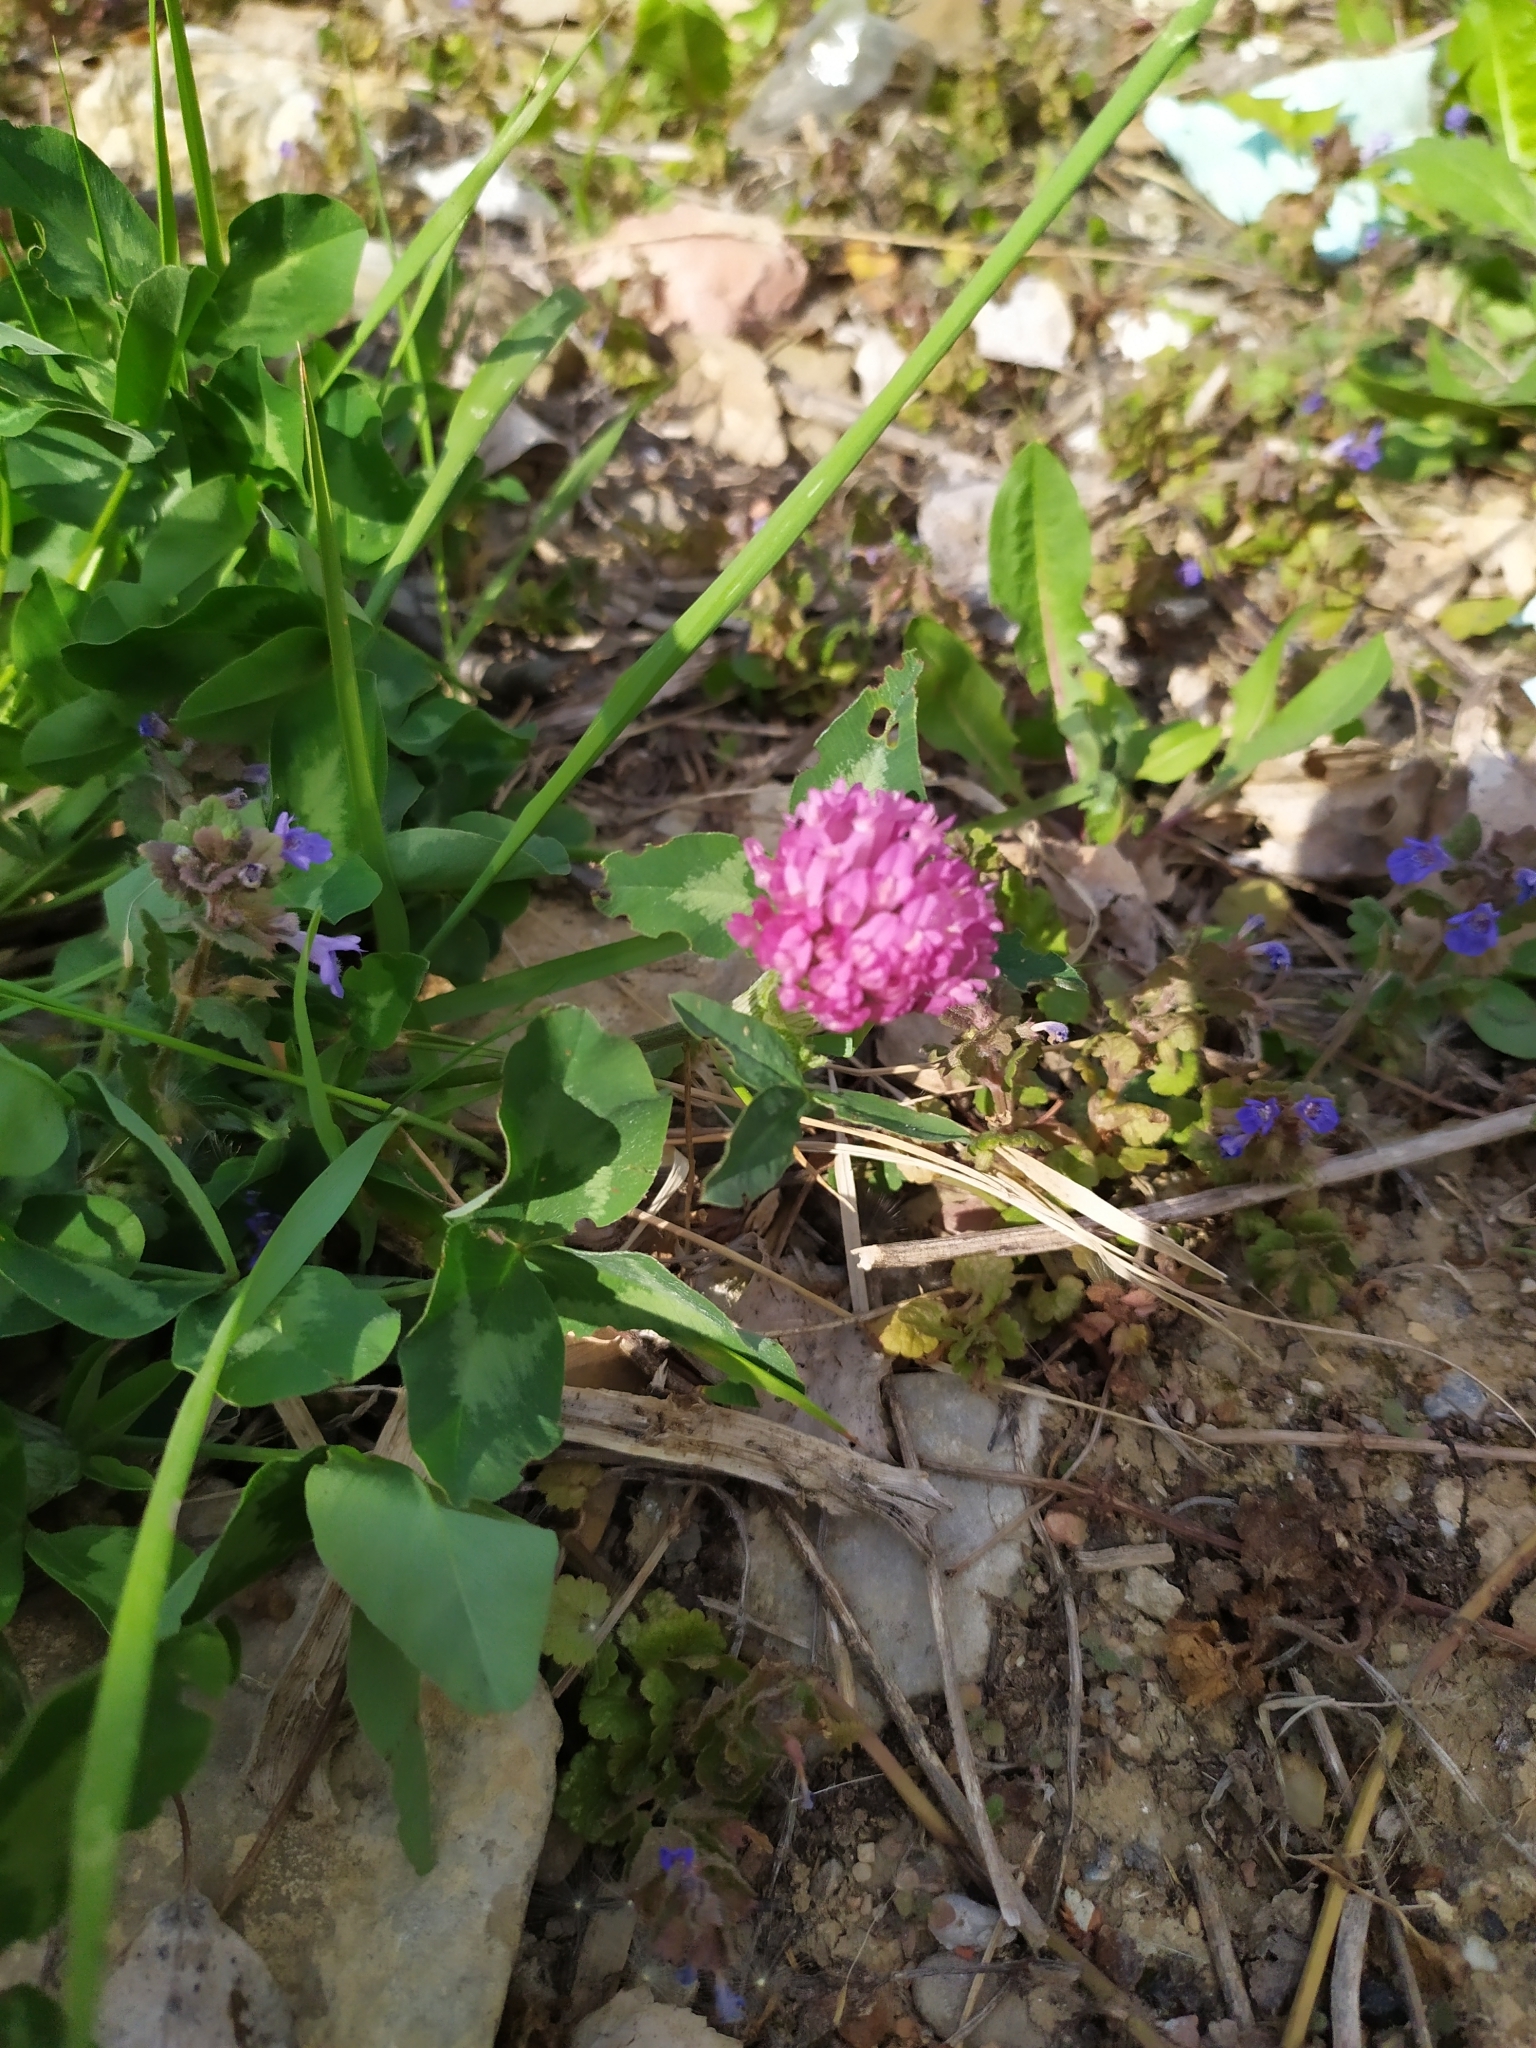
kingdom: Plantae
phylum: Tracheophyta
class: Magnoliopsida
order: Fabales
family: Fabaceae
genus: Trifolium
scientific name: Trifolium pratense
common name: Red clover
